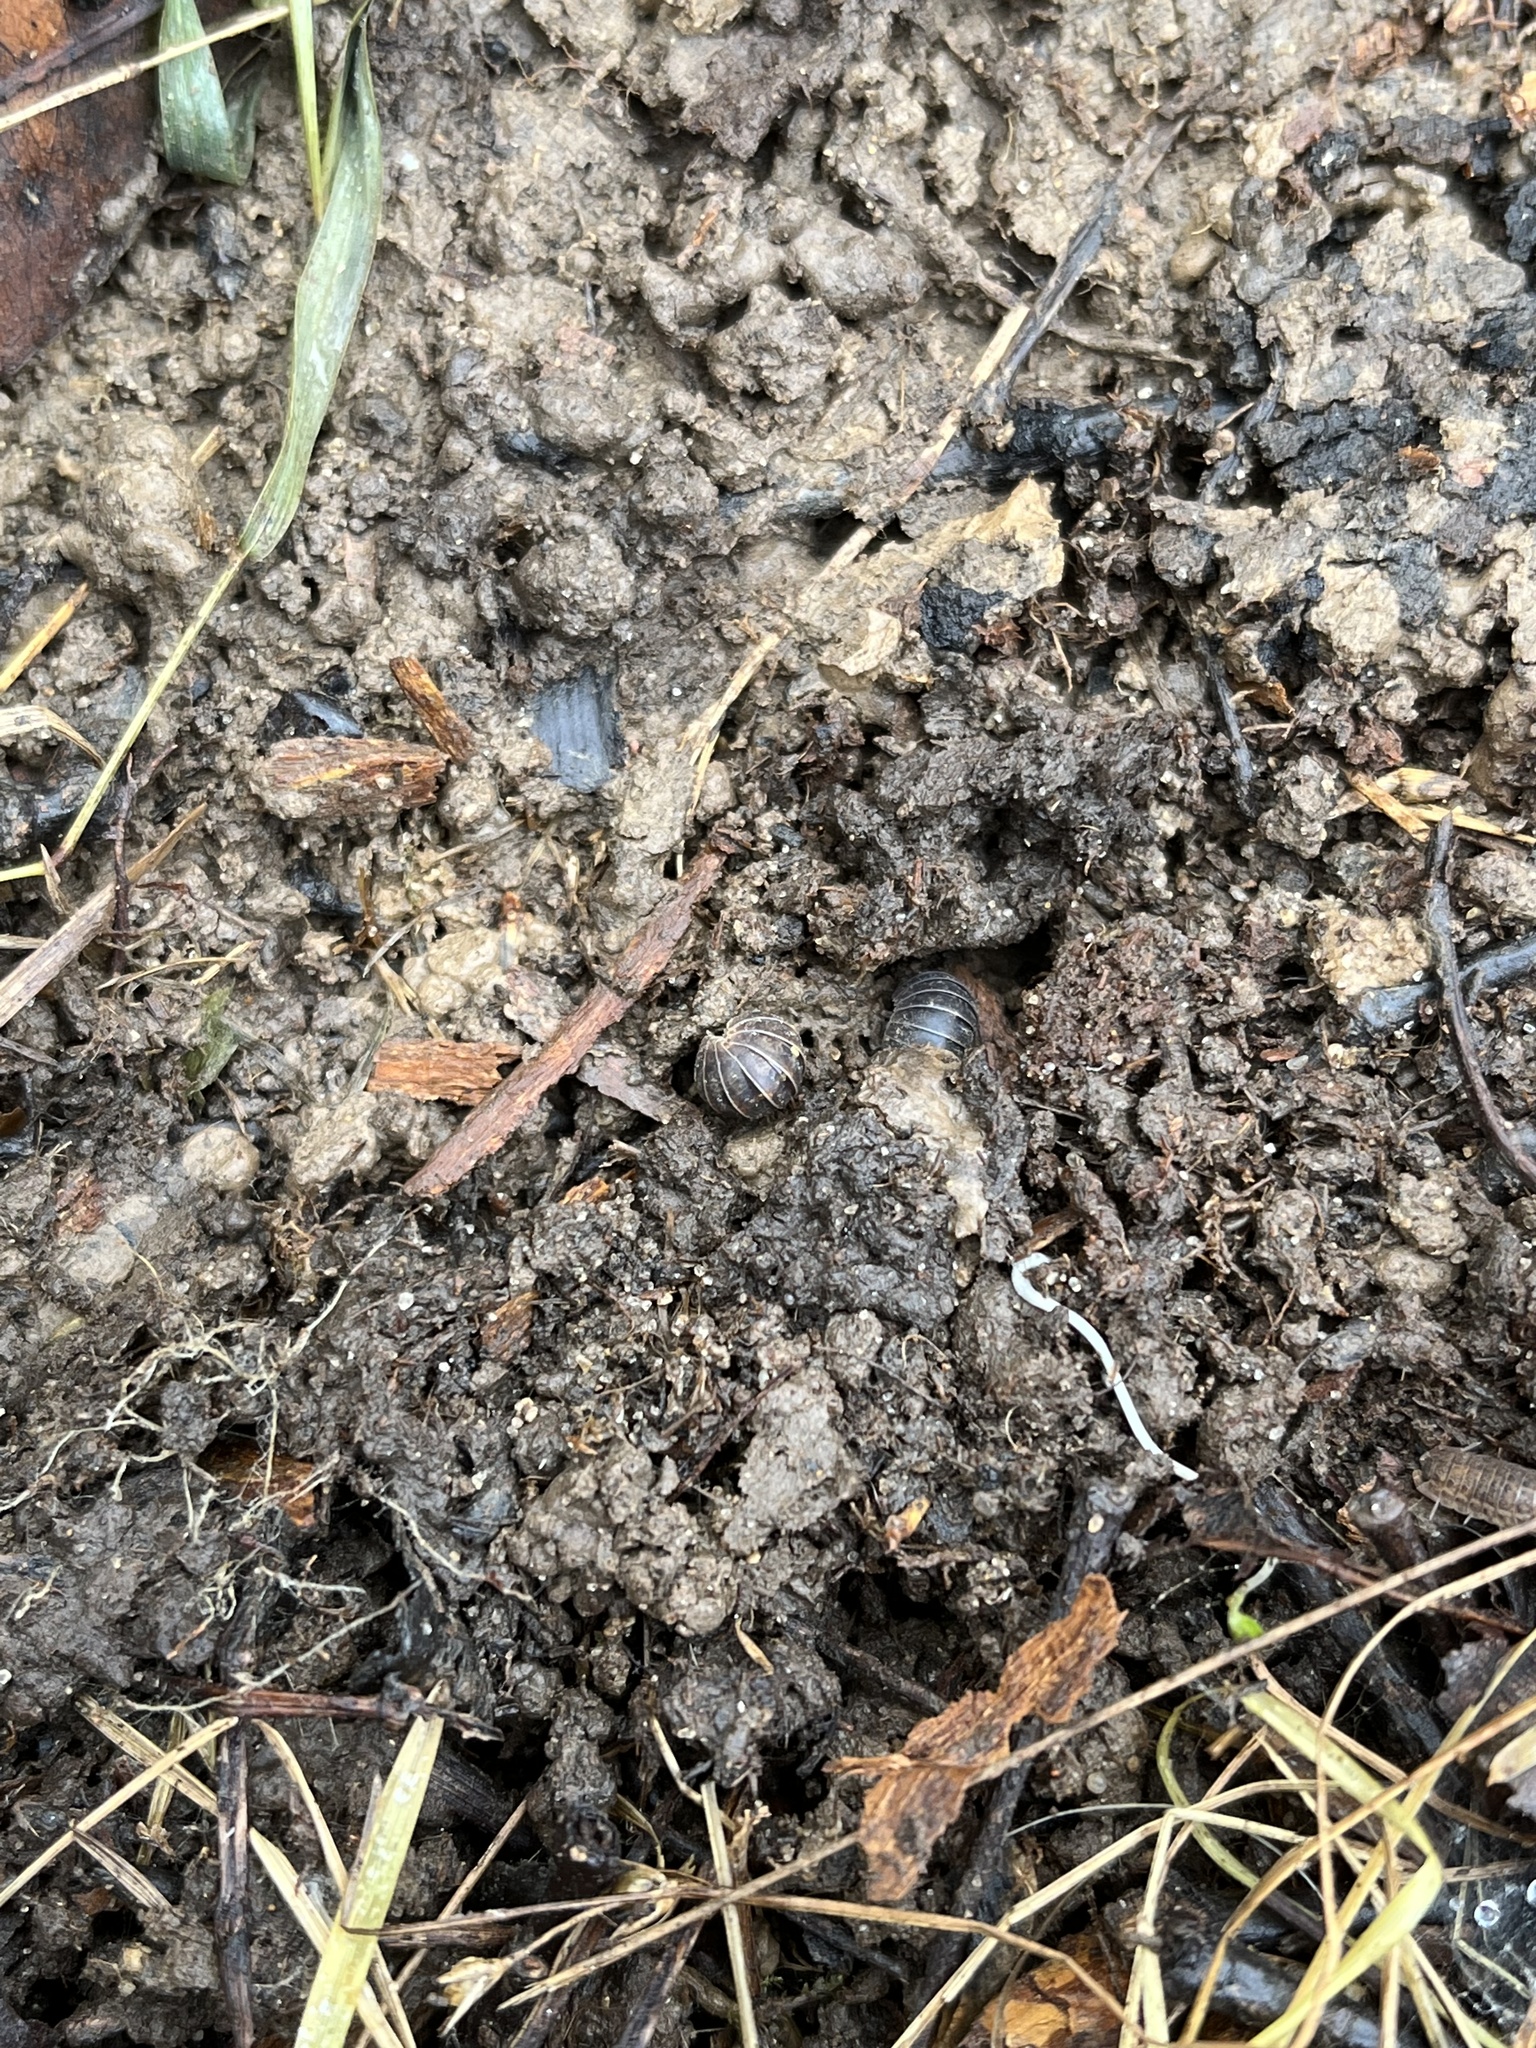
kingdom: Animalia
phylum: Arthropoda
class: Malacostraca
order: Isopoda
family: Armadillidiidae
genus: Armadillidium
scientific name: Armadillidium vulgare
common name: Common pill woodlouse
